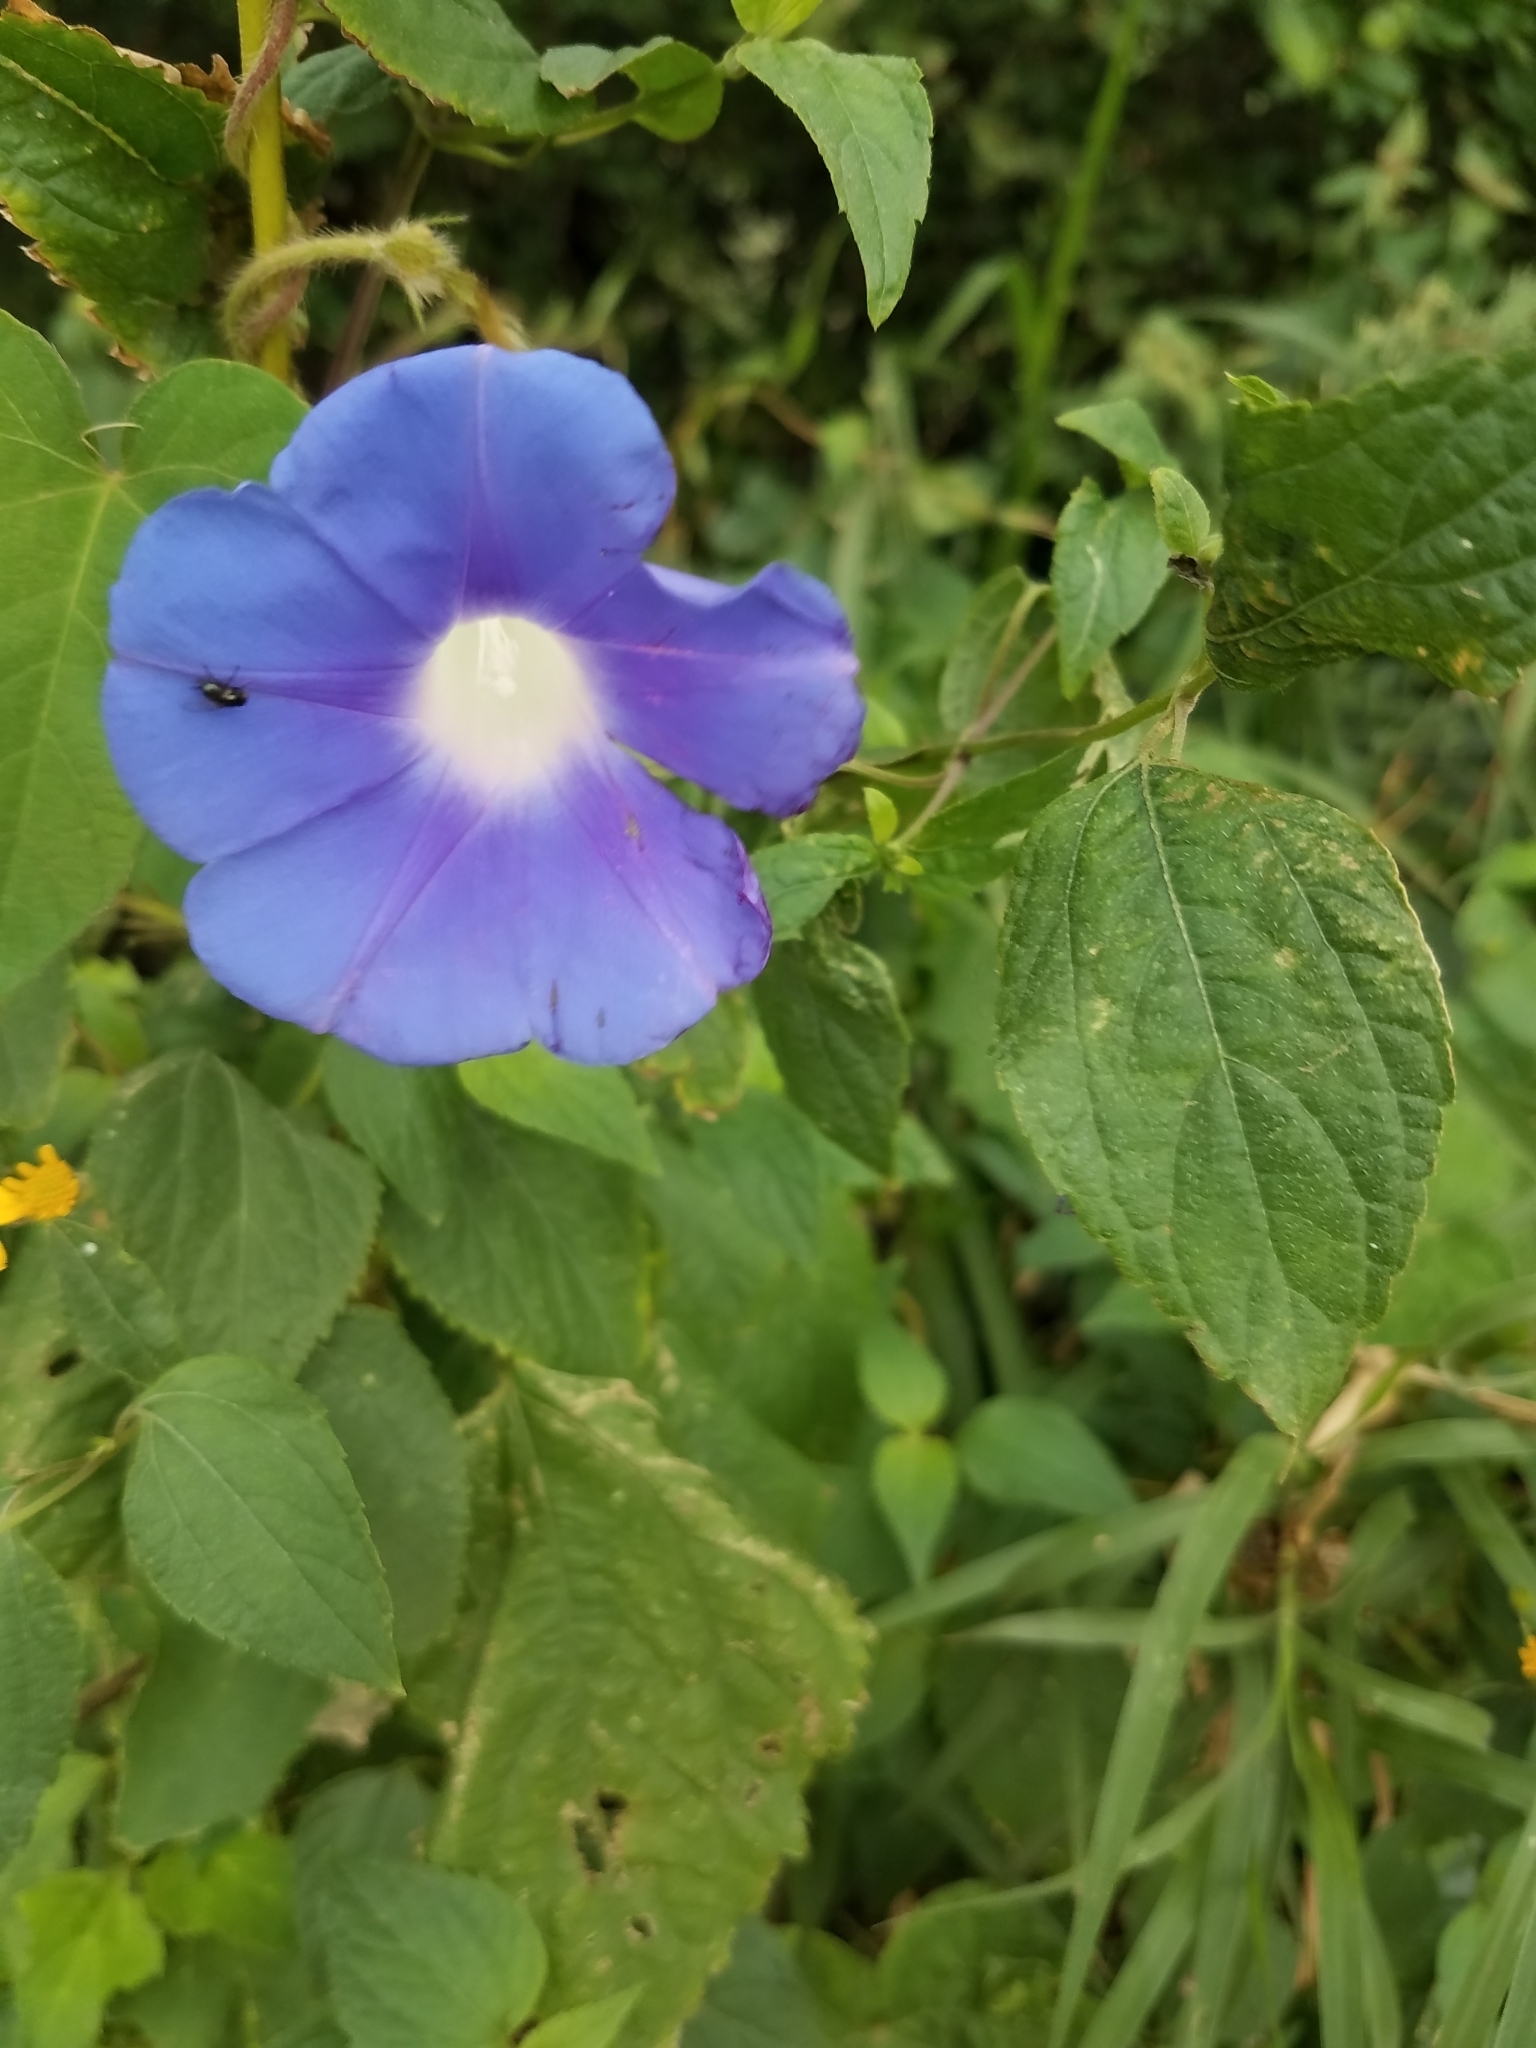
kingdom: Plantae
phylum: Tracheophyta
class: Magnoliopsida
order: Solanales
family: Convolvulaceae
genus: Ipomoea
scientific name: Ipomoea nil
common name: Japanese morning-glory
